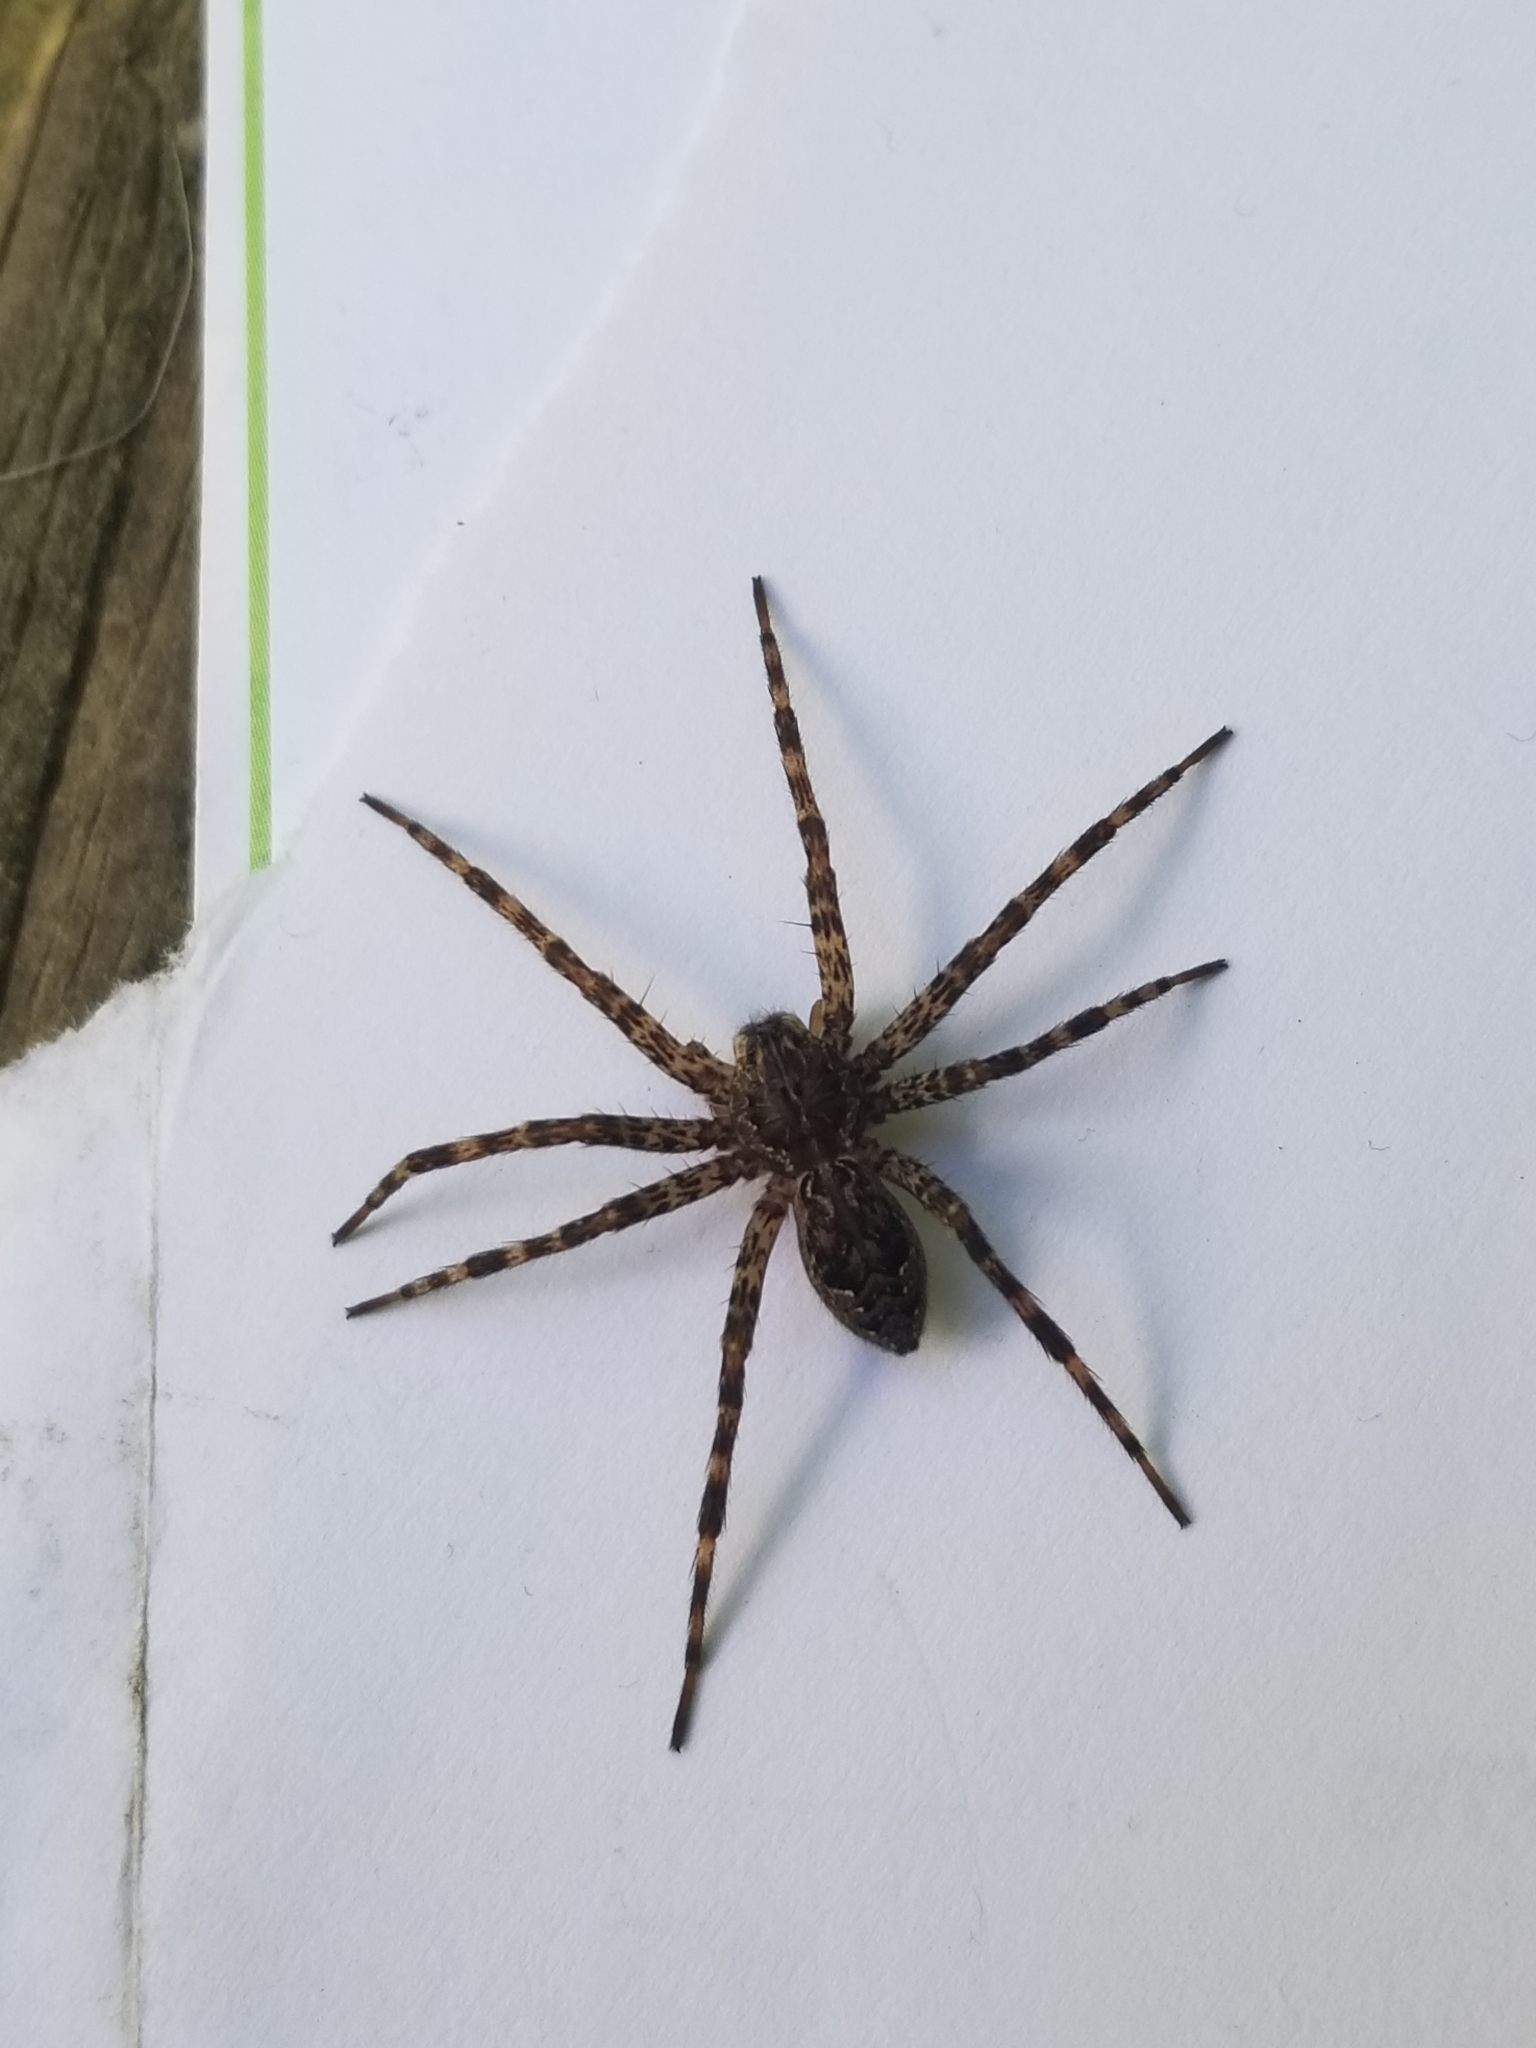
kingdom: Animalia
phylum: Arthropoda
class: Arachnida
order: Araneae
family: Pisauridae
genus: Dolomedes
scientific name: Dolomedes tenebrosus
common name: Dark fishing spider
